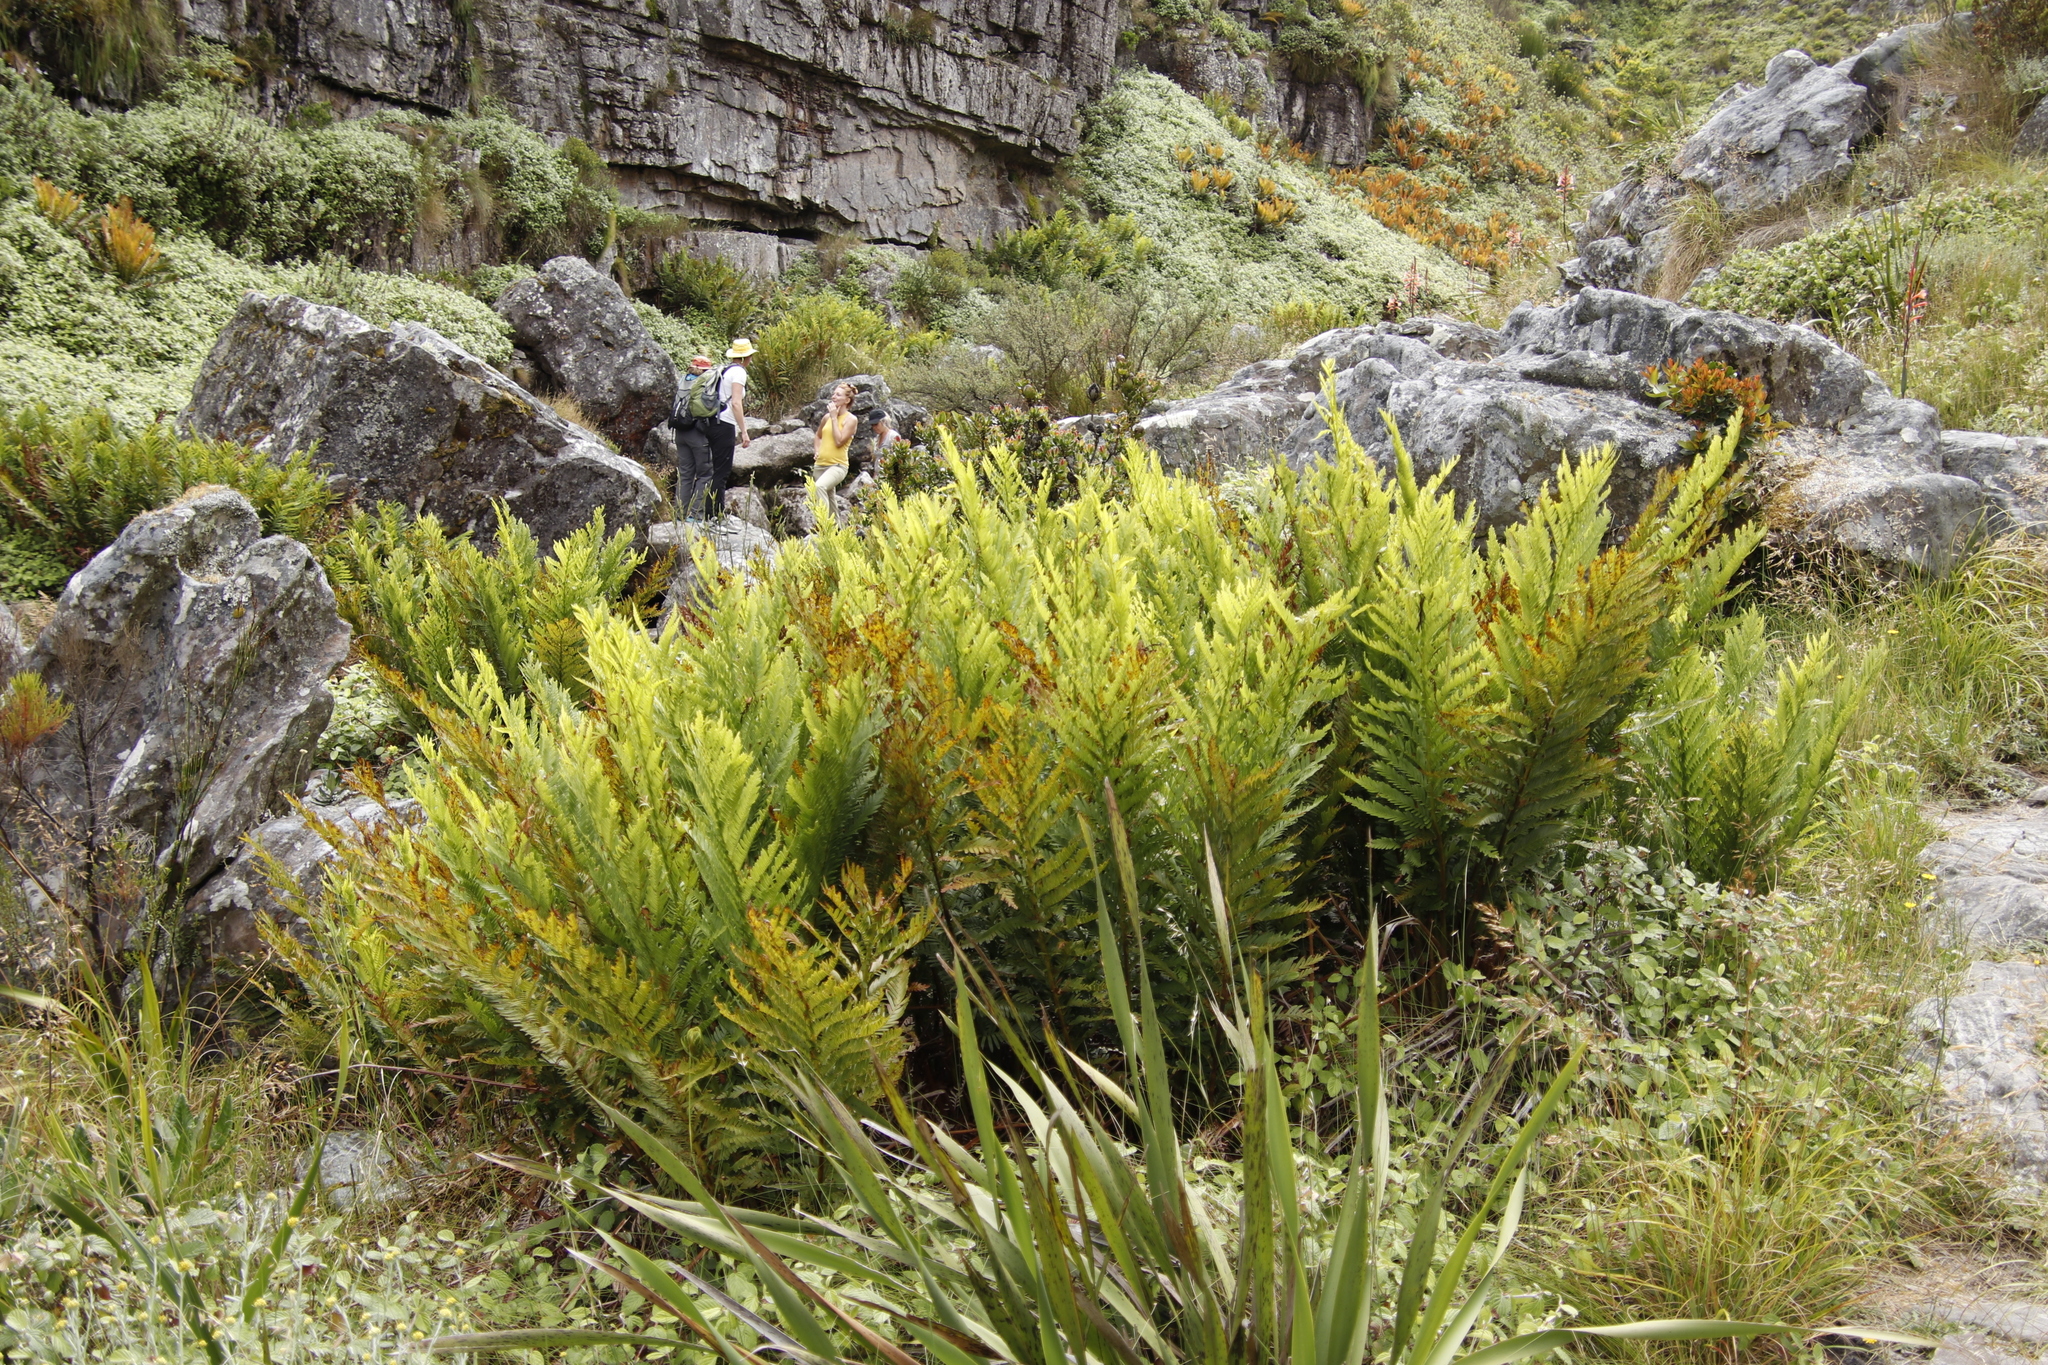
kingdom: Plantae
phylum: Tracheophyta
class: Polypodiopsida
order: Osmundales
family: Osmundaceae
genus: Todea
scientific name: Todea barbara
